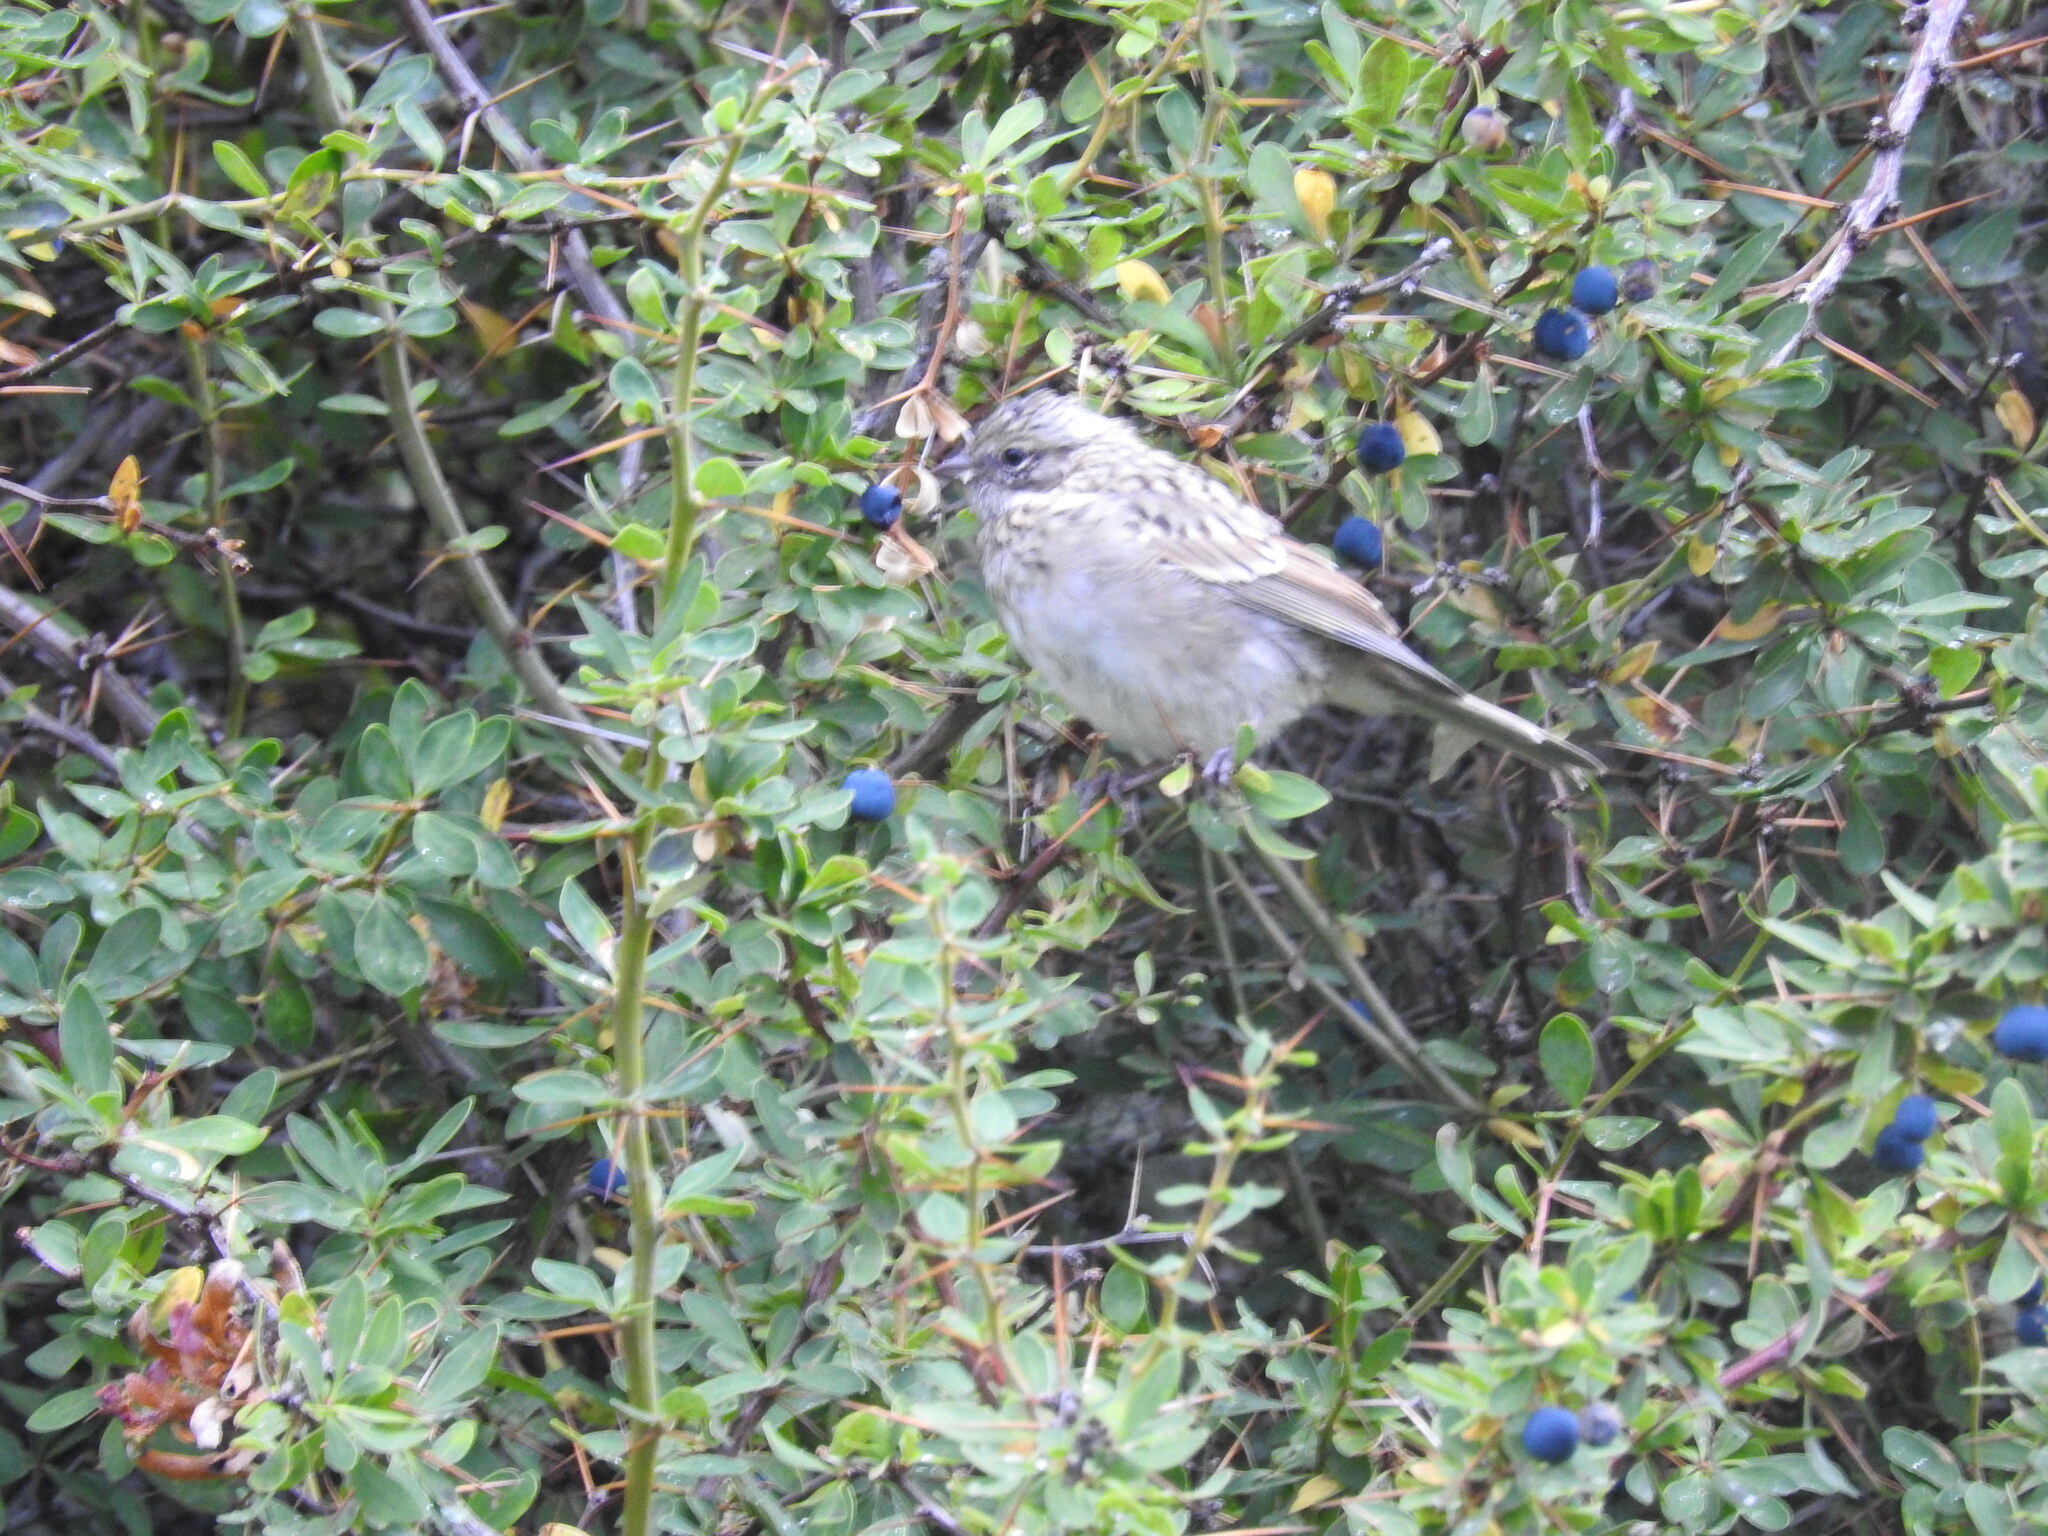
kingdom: Animalia
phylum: Chordata
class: Aves
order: Passeriformes
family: Passerellidae
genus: Zonotrichia
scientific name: Zonotrichia capensis
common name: Rufous-collared sparrow
